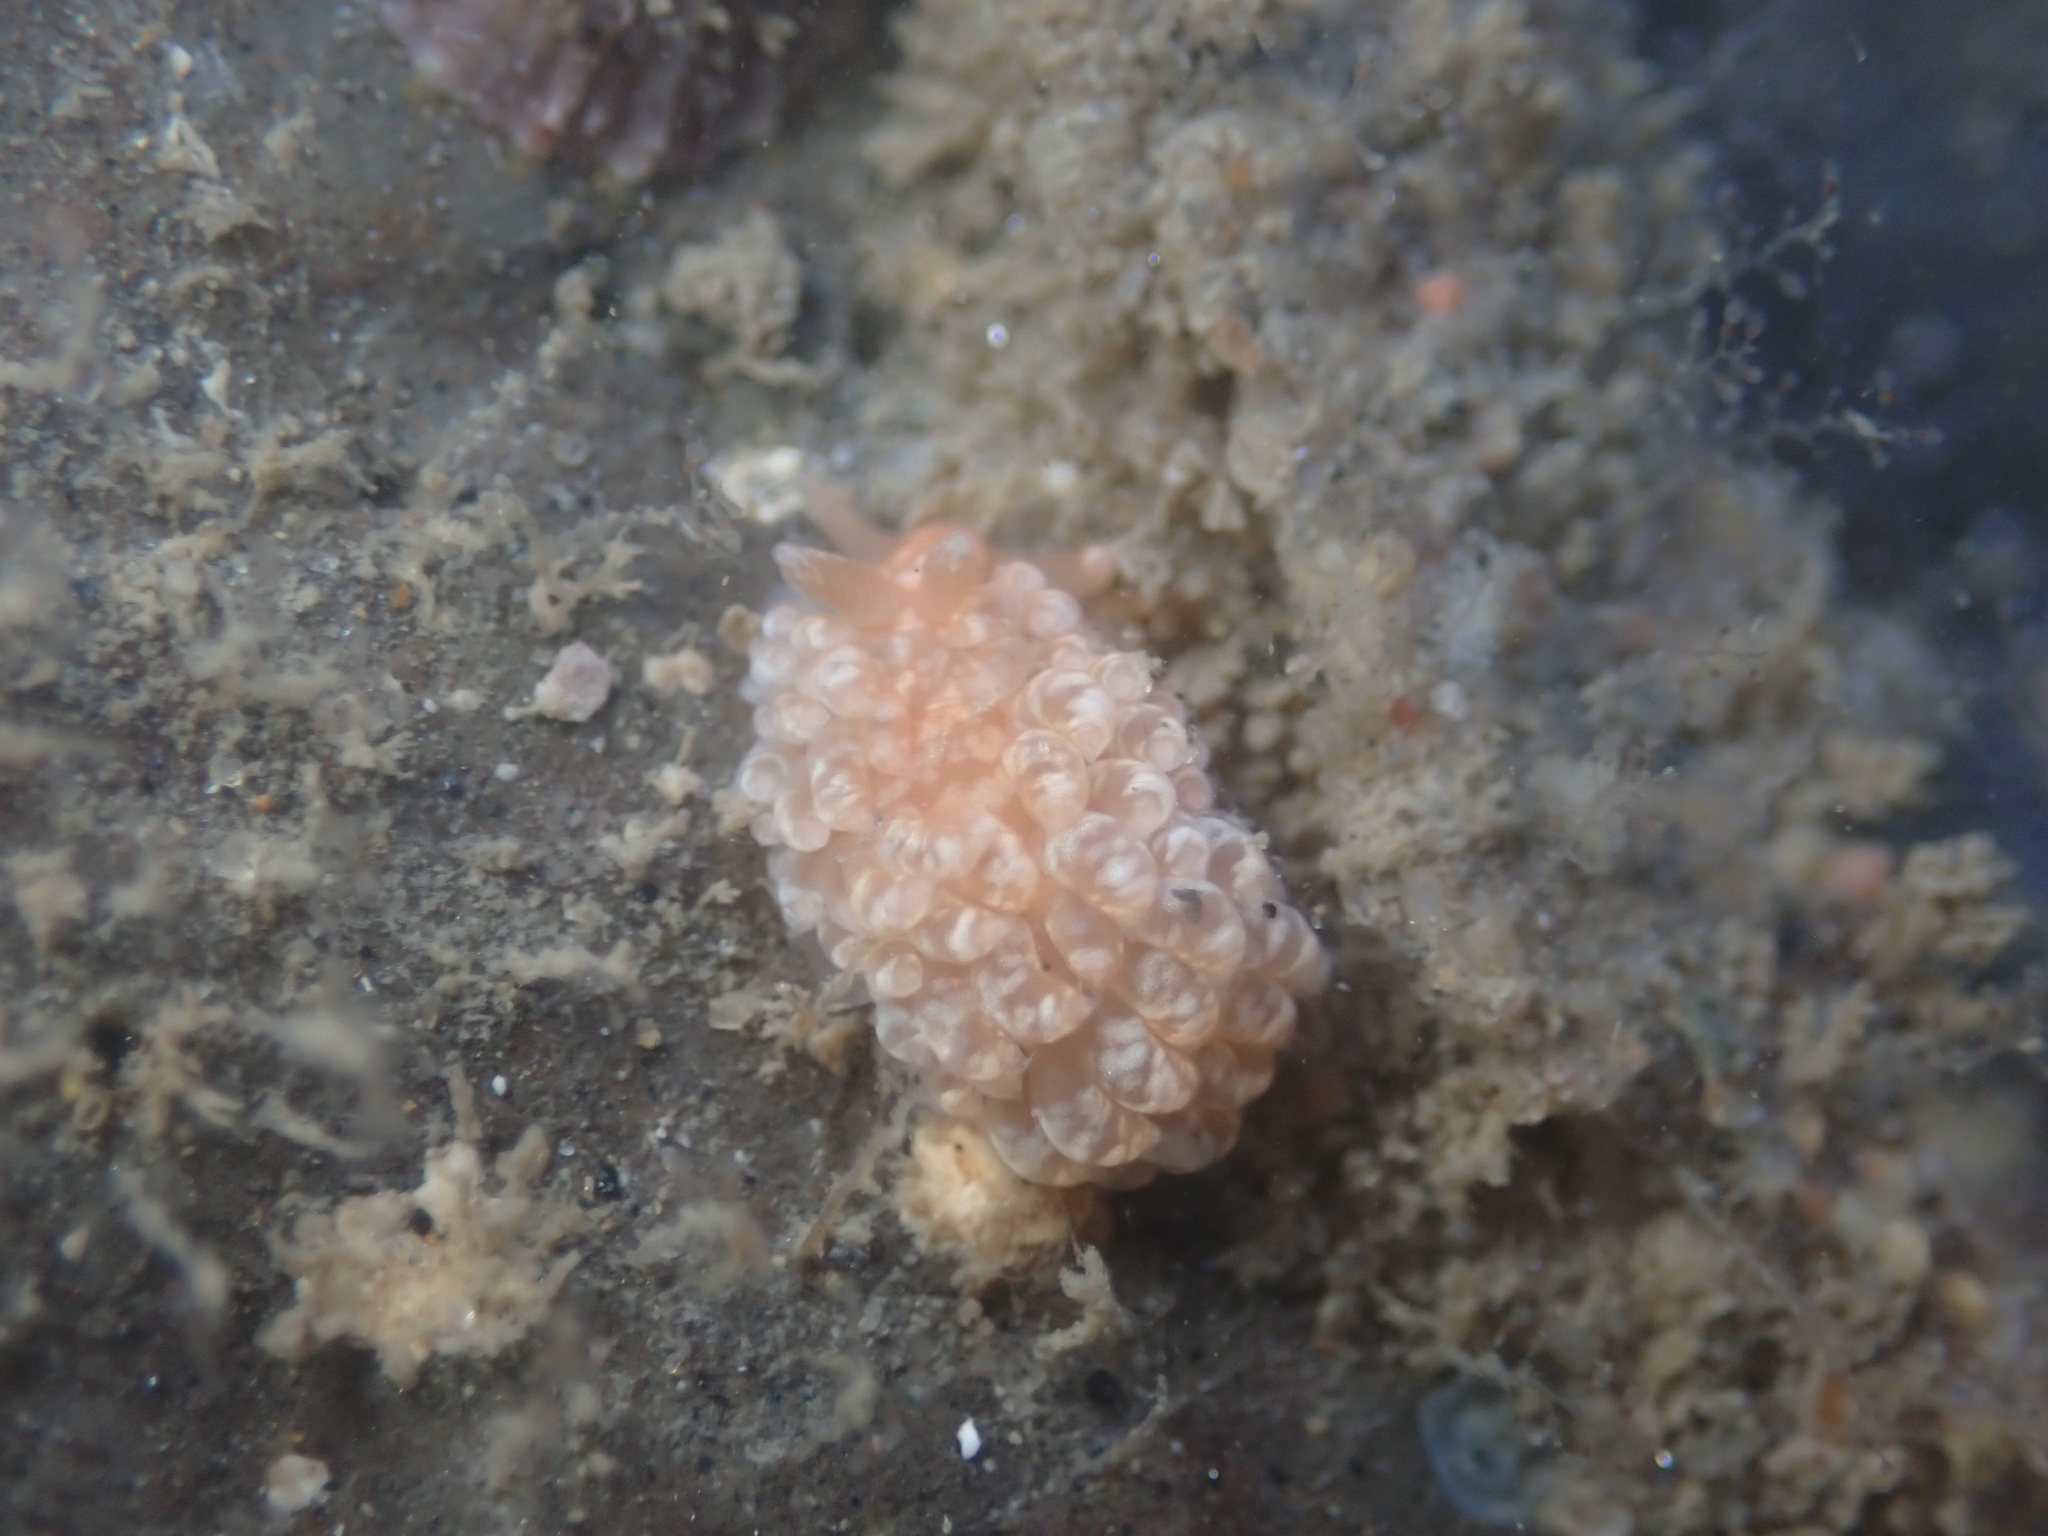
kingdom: Animalia
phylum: Mollusca
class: Gastropoda
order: Nudibranchia
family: Aeolidiidae
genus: Anteaeolidiella
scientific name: Anteaeolidiella chromosoma
